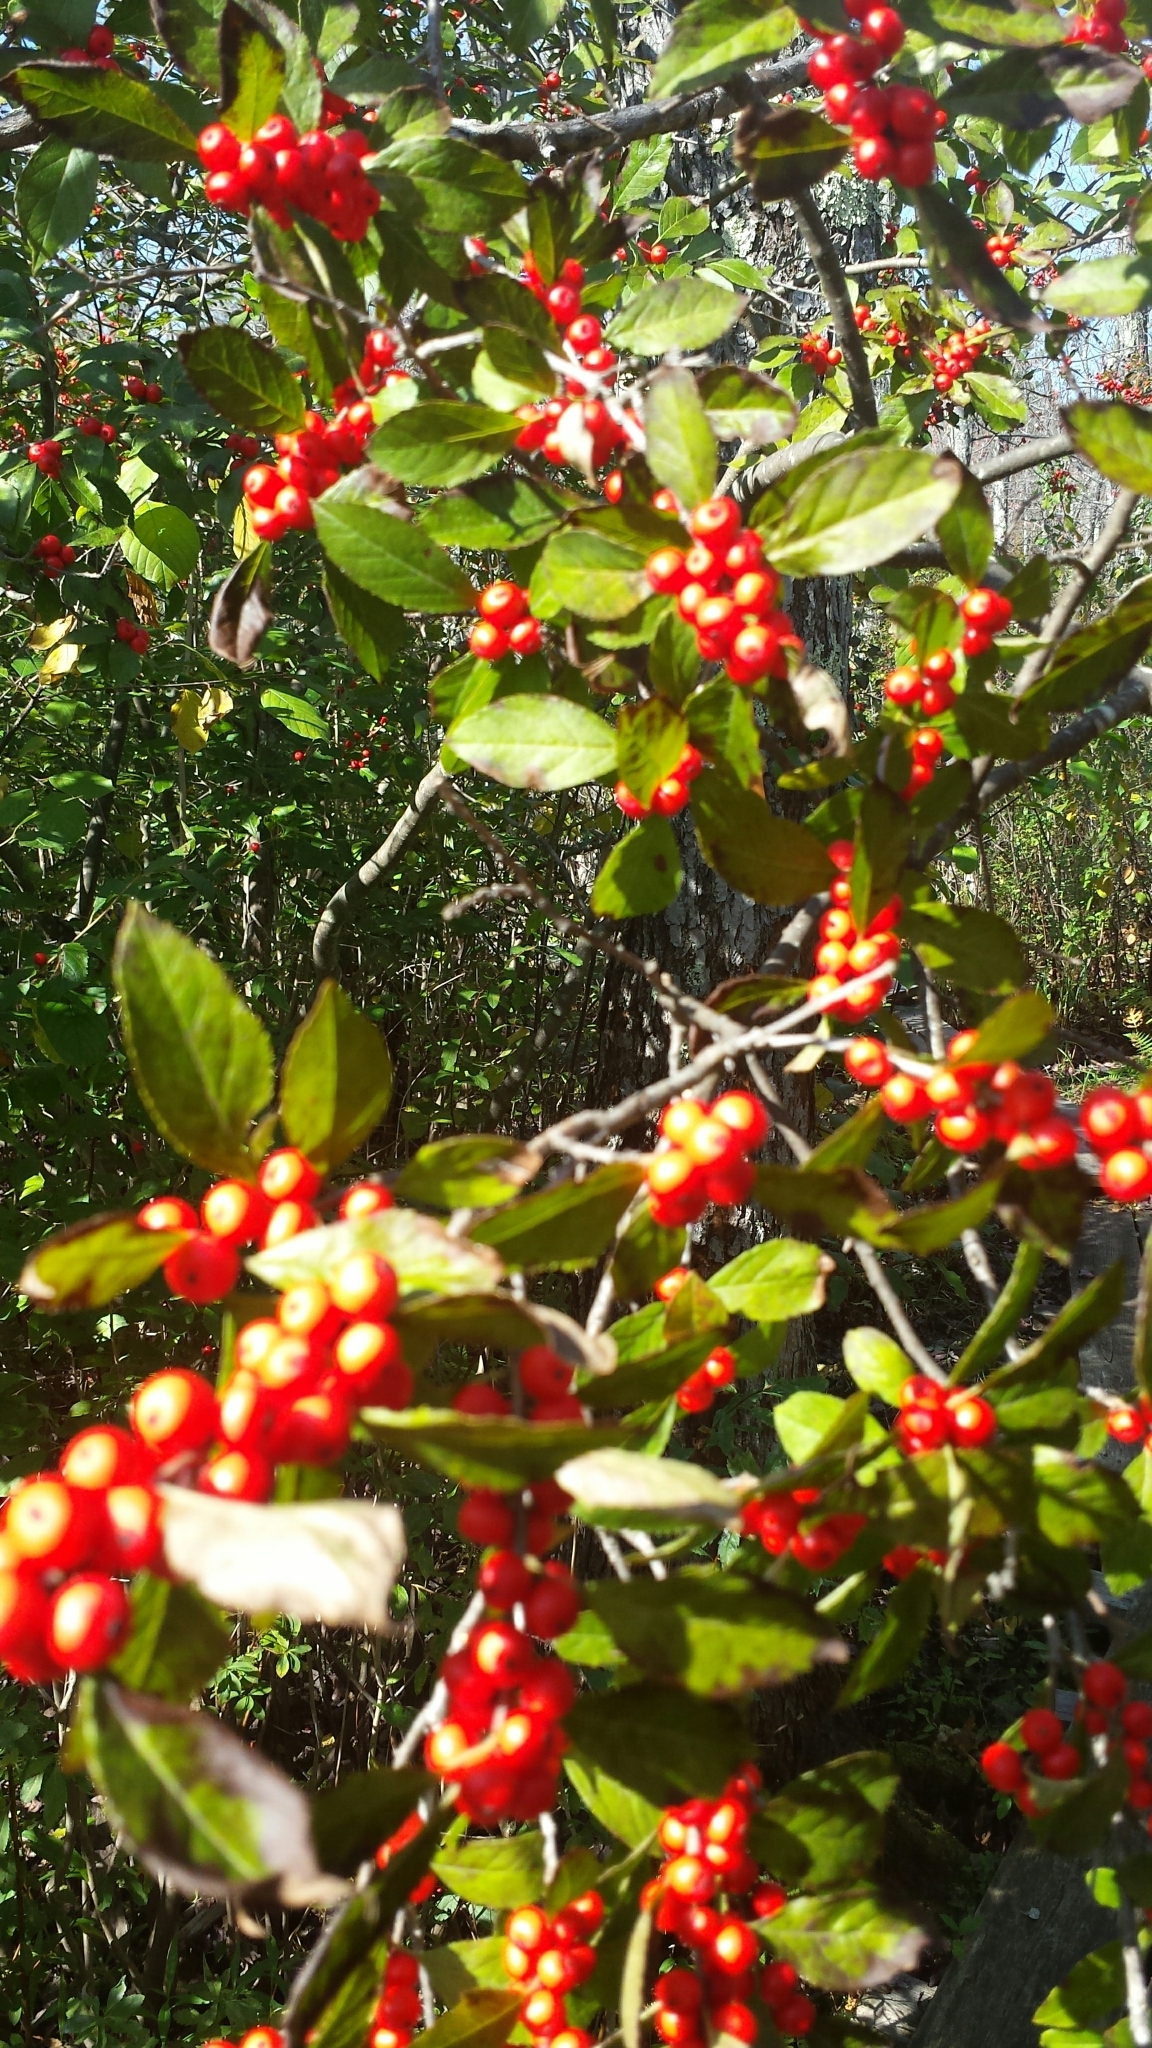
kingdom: Plantae
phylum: Tracheophyta
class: Magnoliopsida
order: Aquifoliales
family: Aquifoliaceae
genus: Ilex
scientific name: Ilex verticillata
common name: Virginia winterberry
